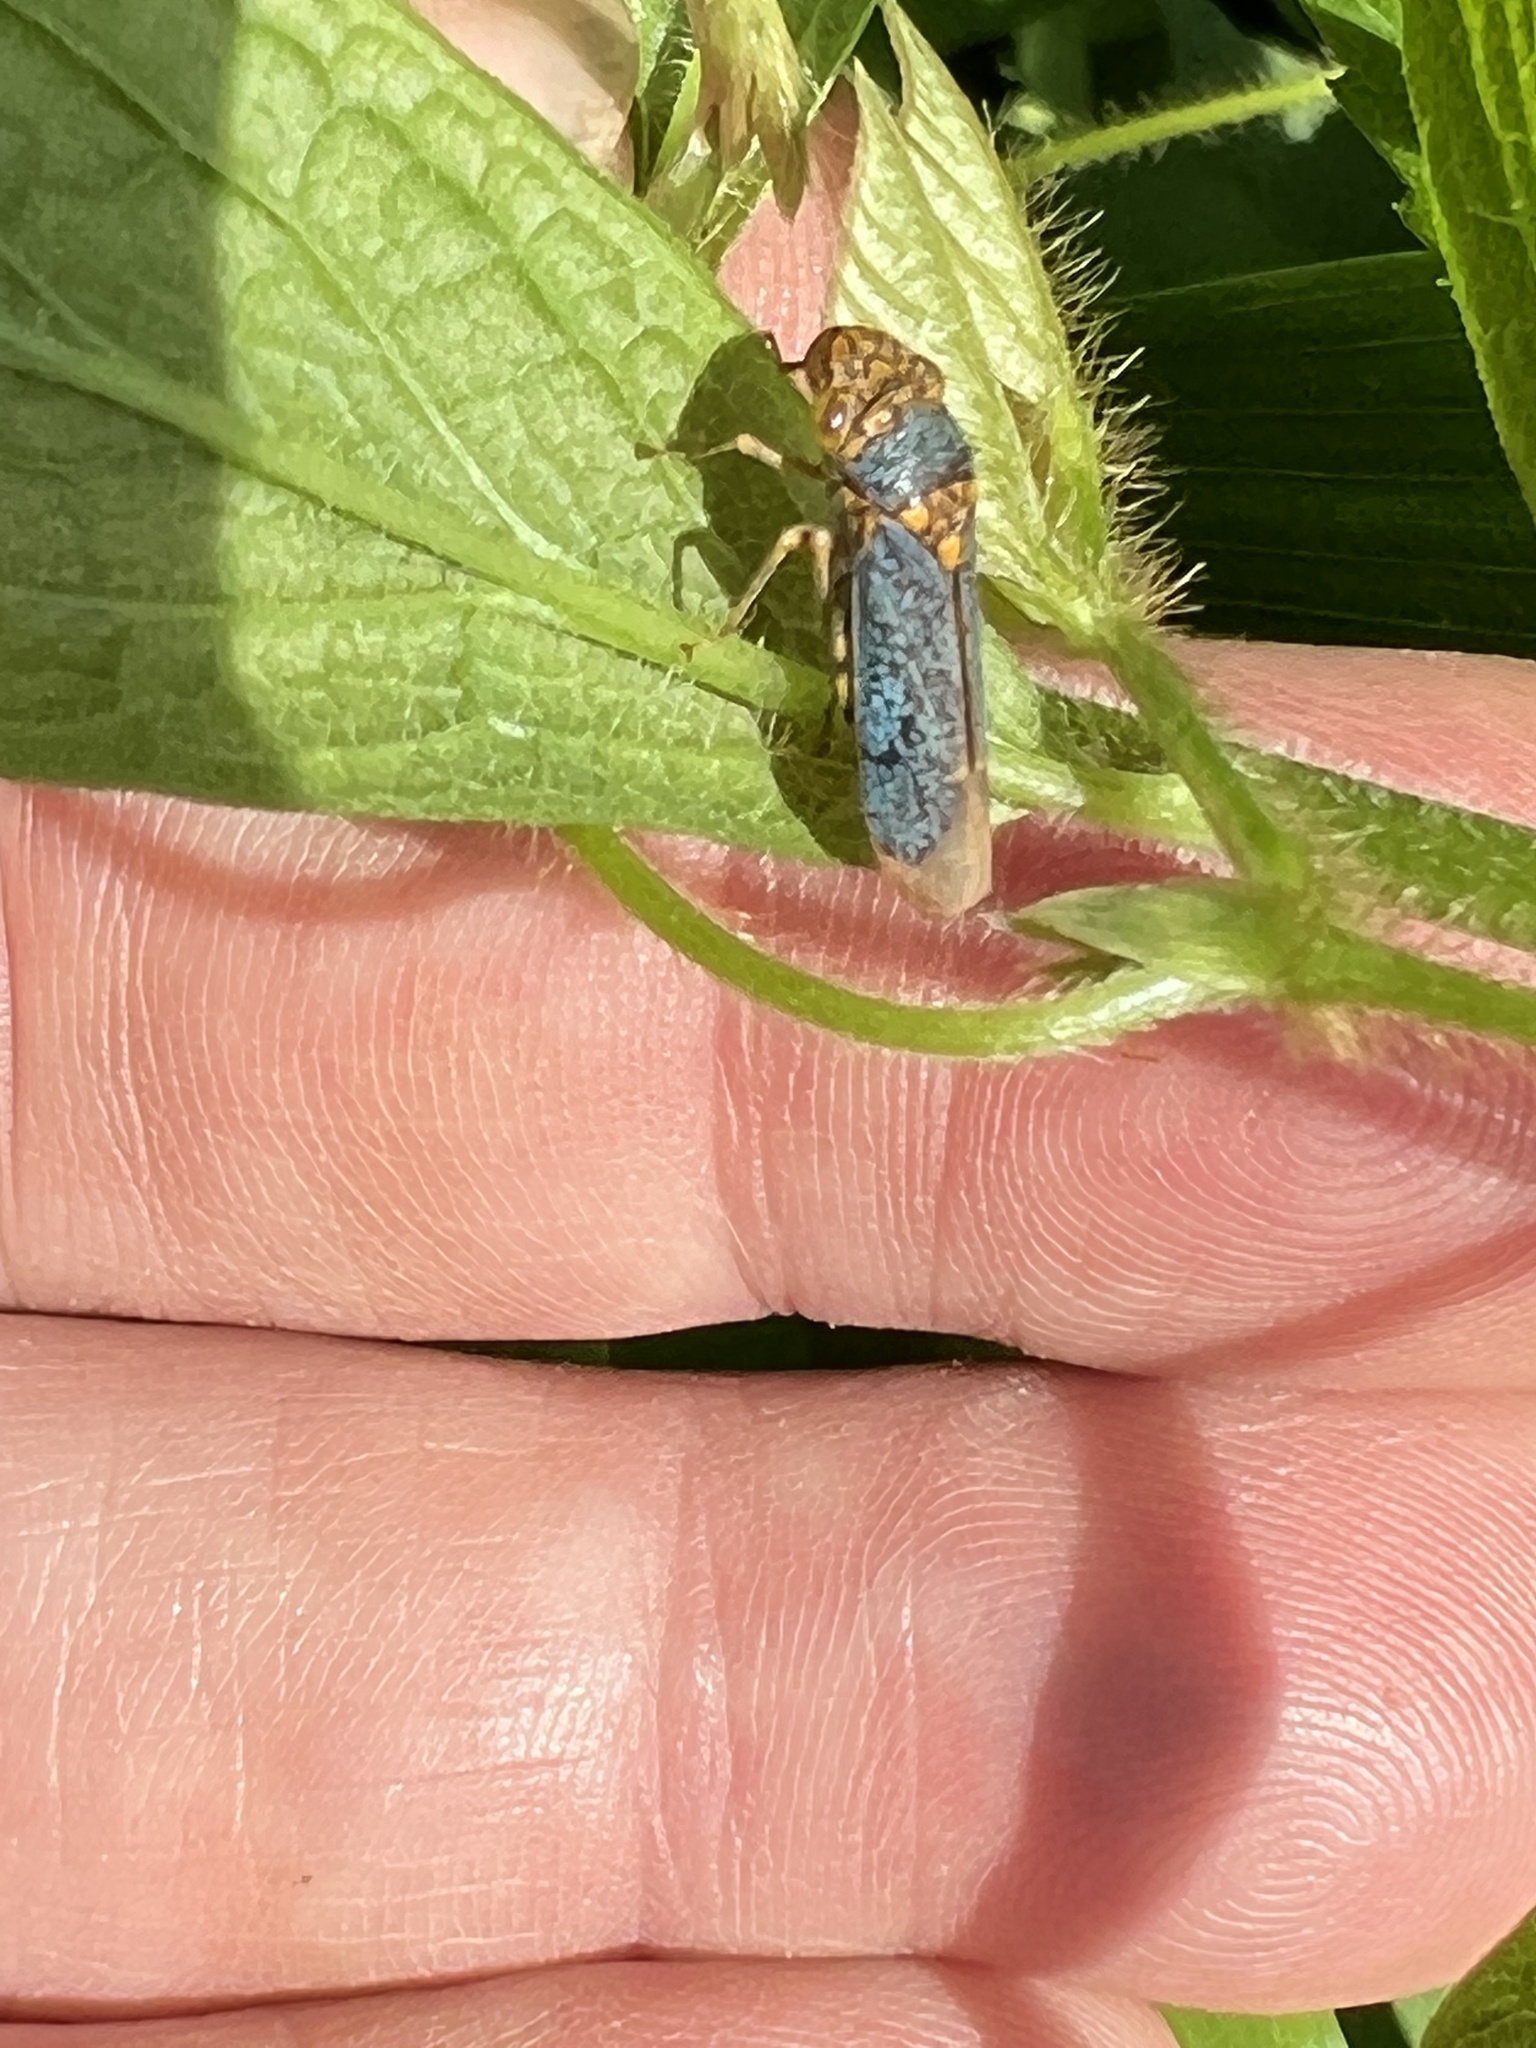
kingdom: Animalia
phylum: Arthropoda
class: Insecta
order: Hemiptera
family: Cicadellidae
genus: Oncometopia
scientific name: Oncometopia orbona
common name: Broad-headed sharpshooter
